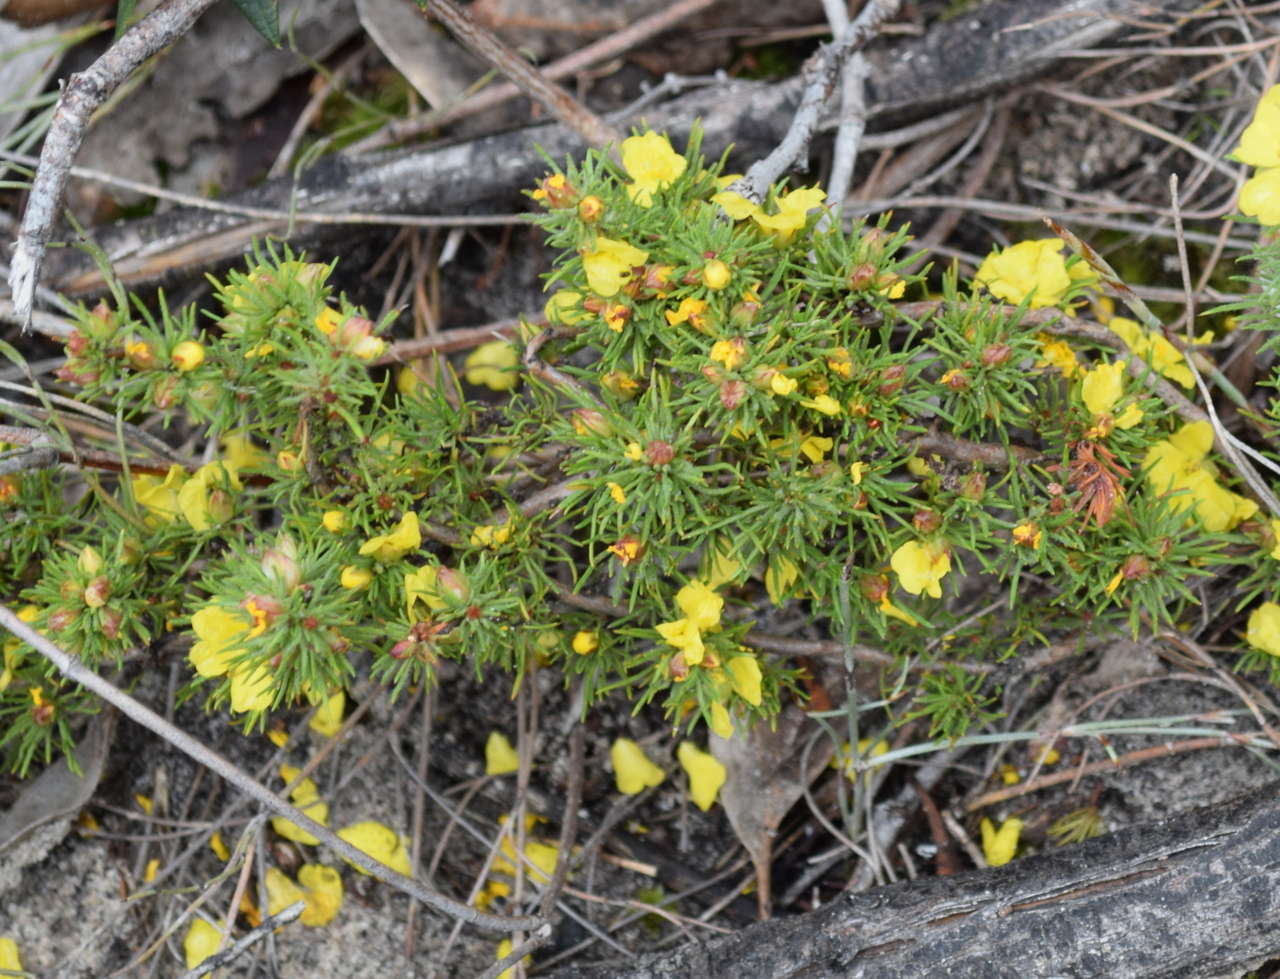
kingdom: Plantae
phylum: Tracheophyta
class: Magnoliopsida
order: Dilleniales
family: Dilleniaceae
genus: Hibbertia
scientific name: Hibbertia prostrata
